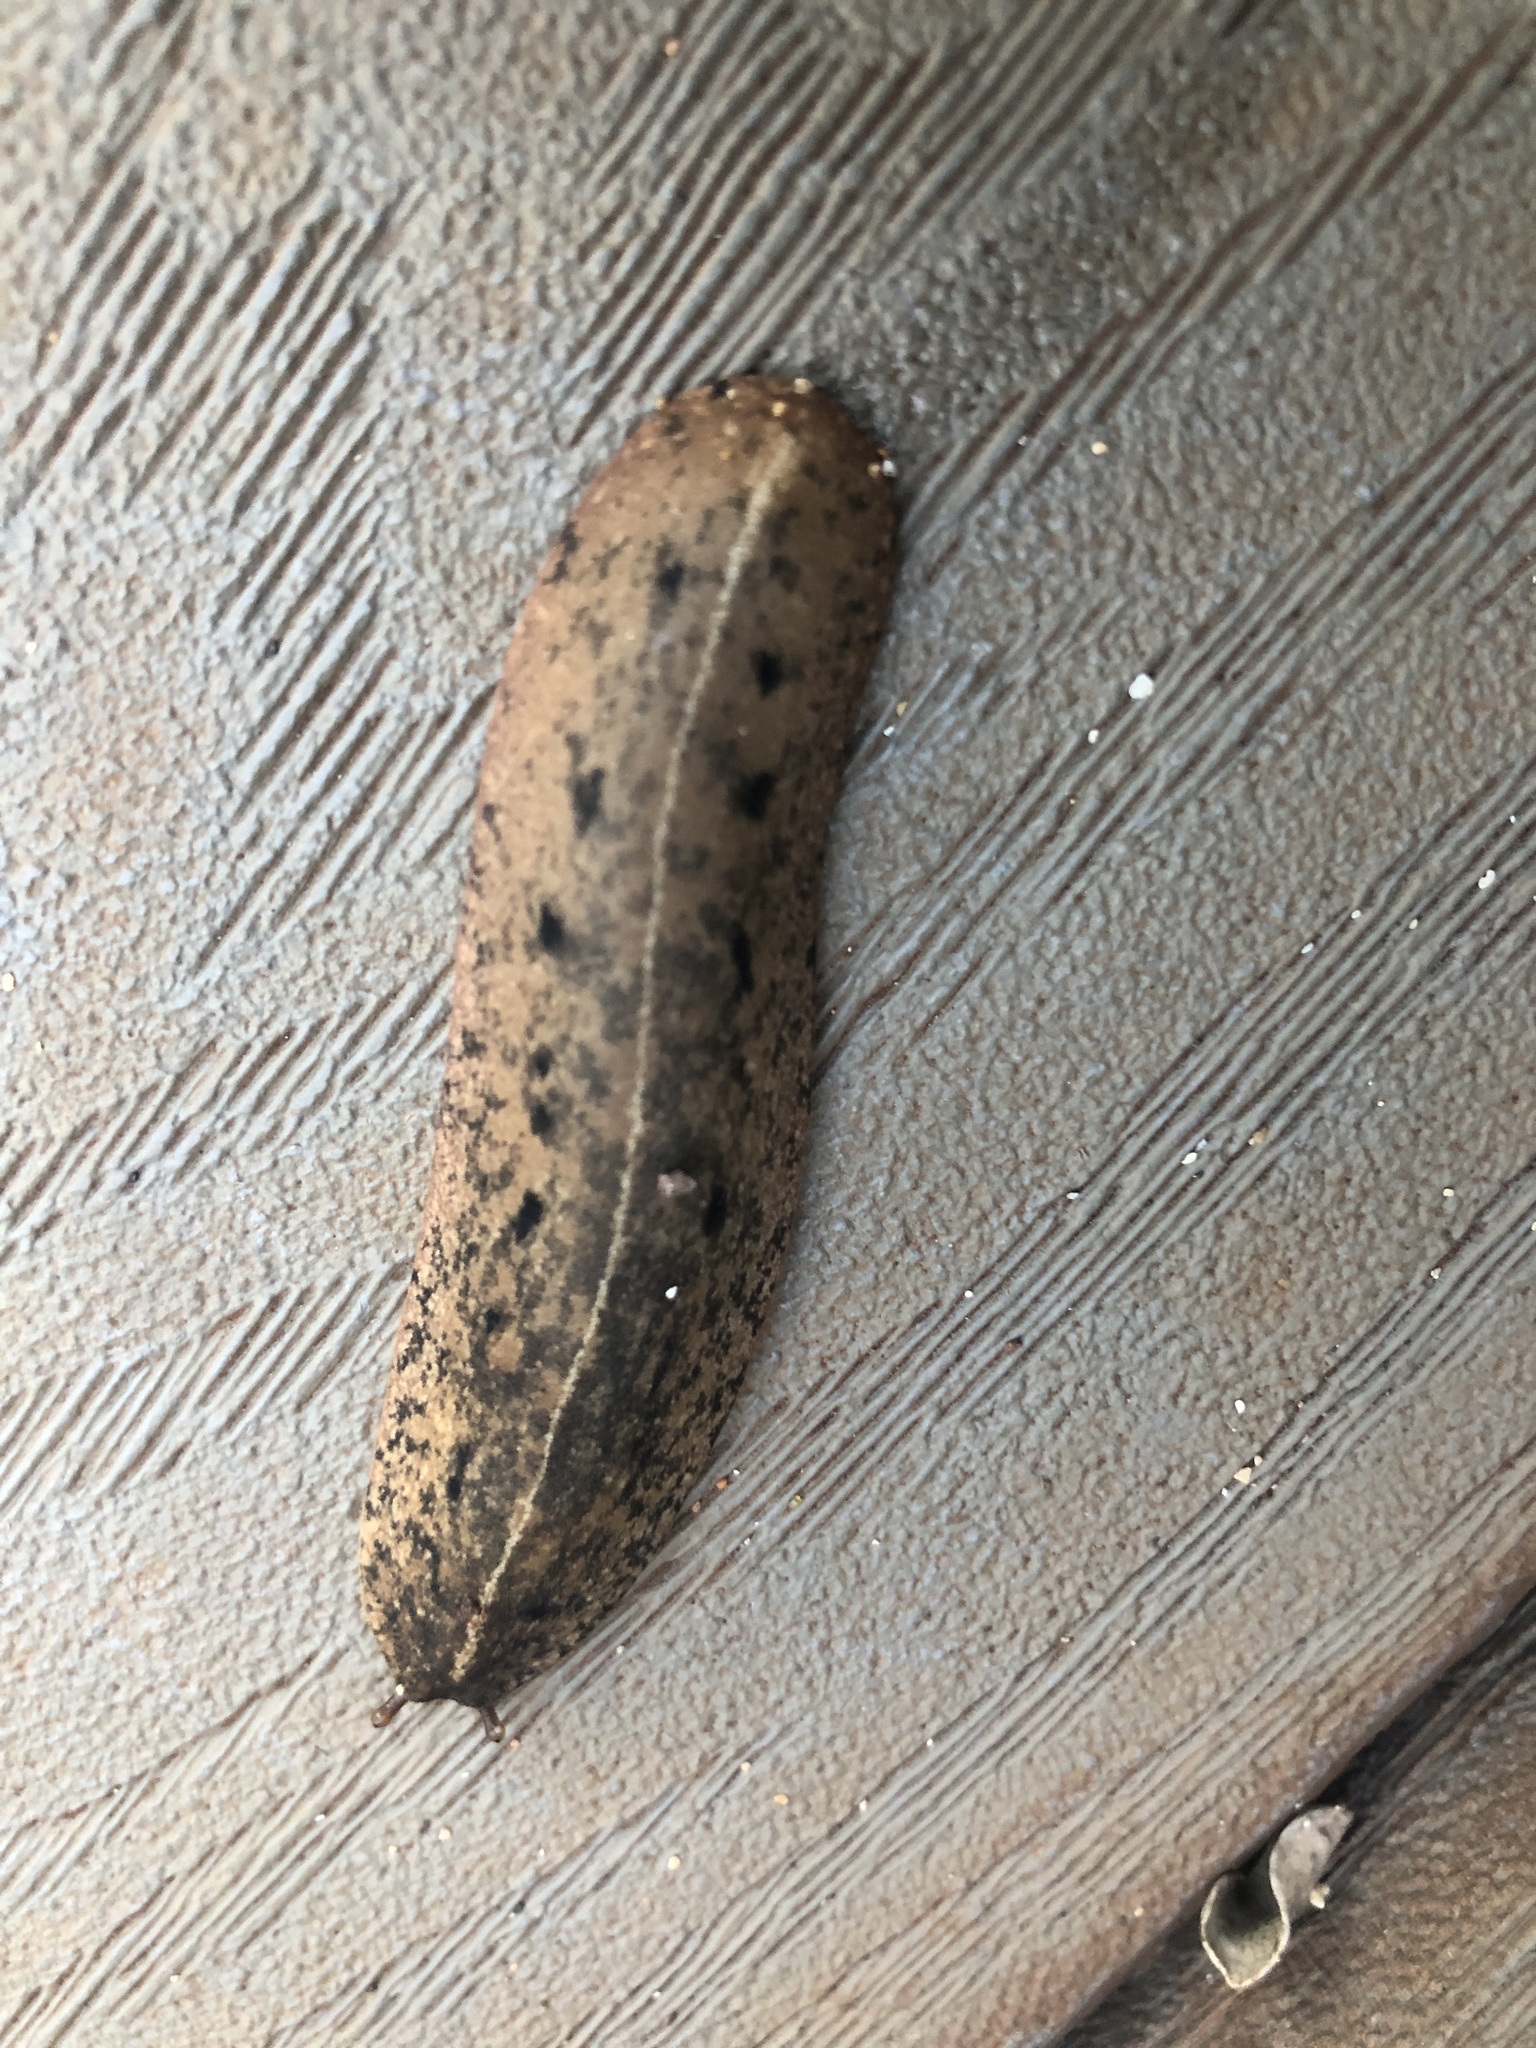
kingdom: Animalia
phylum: Mollusca
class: Gastropoda
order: Systellommatophora
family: Veronicellidae
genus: Veronicella
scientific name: Veronicella cubensis
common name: Two striped slug
